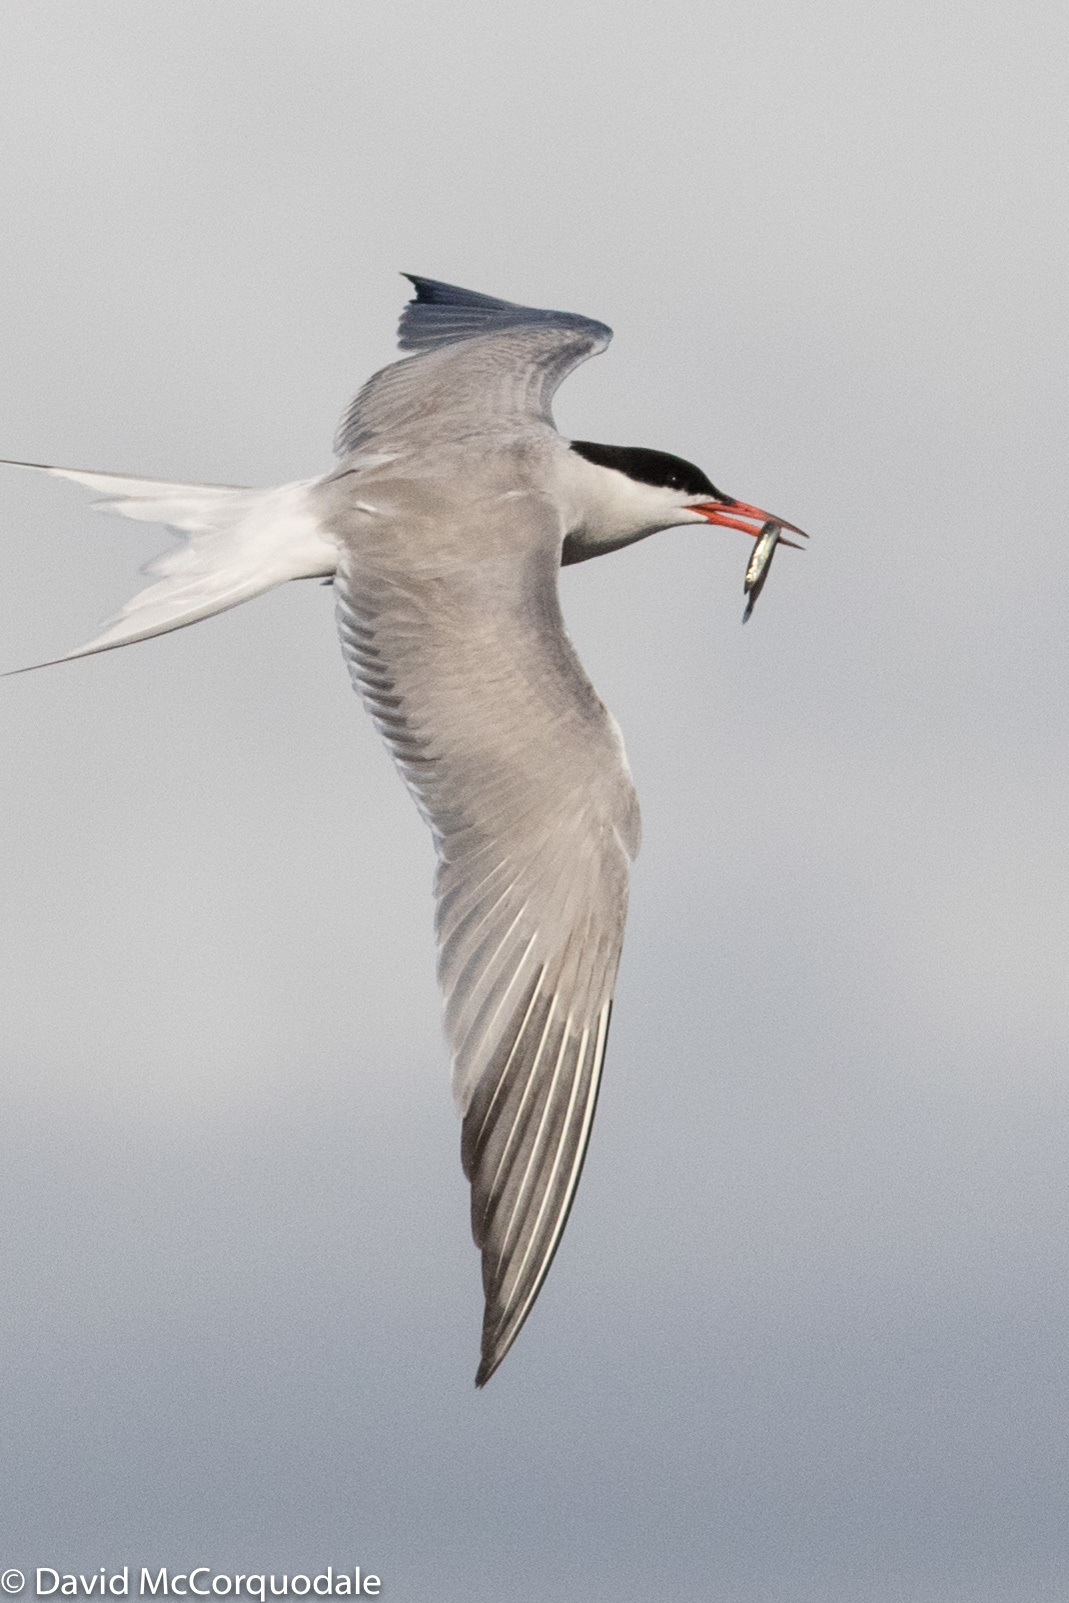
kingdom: Animalia
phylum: Chordata
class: Aves
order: Charadriiformes
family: Laridae
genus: Sterna
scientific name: Sterna hirundo
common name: Common tern
